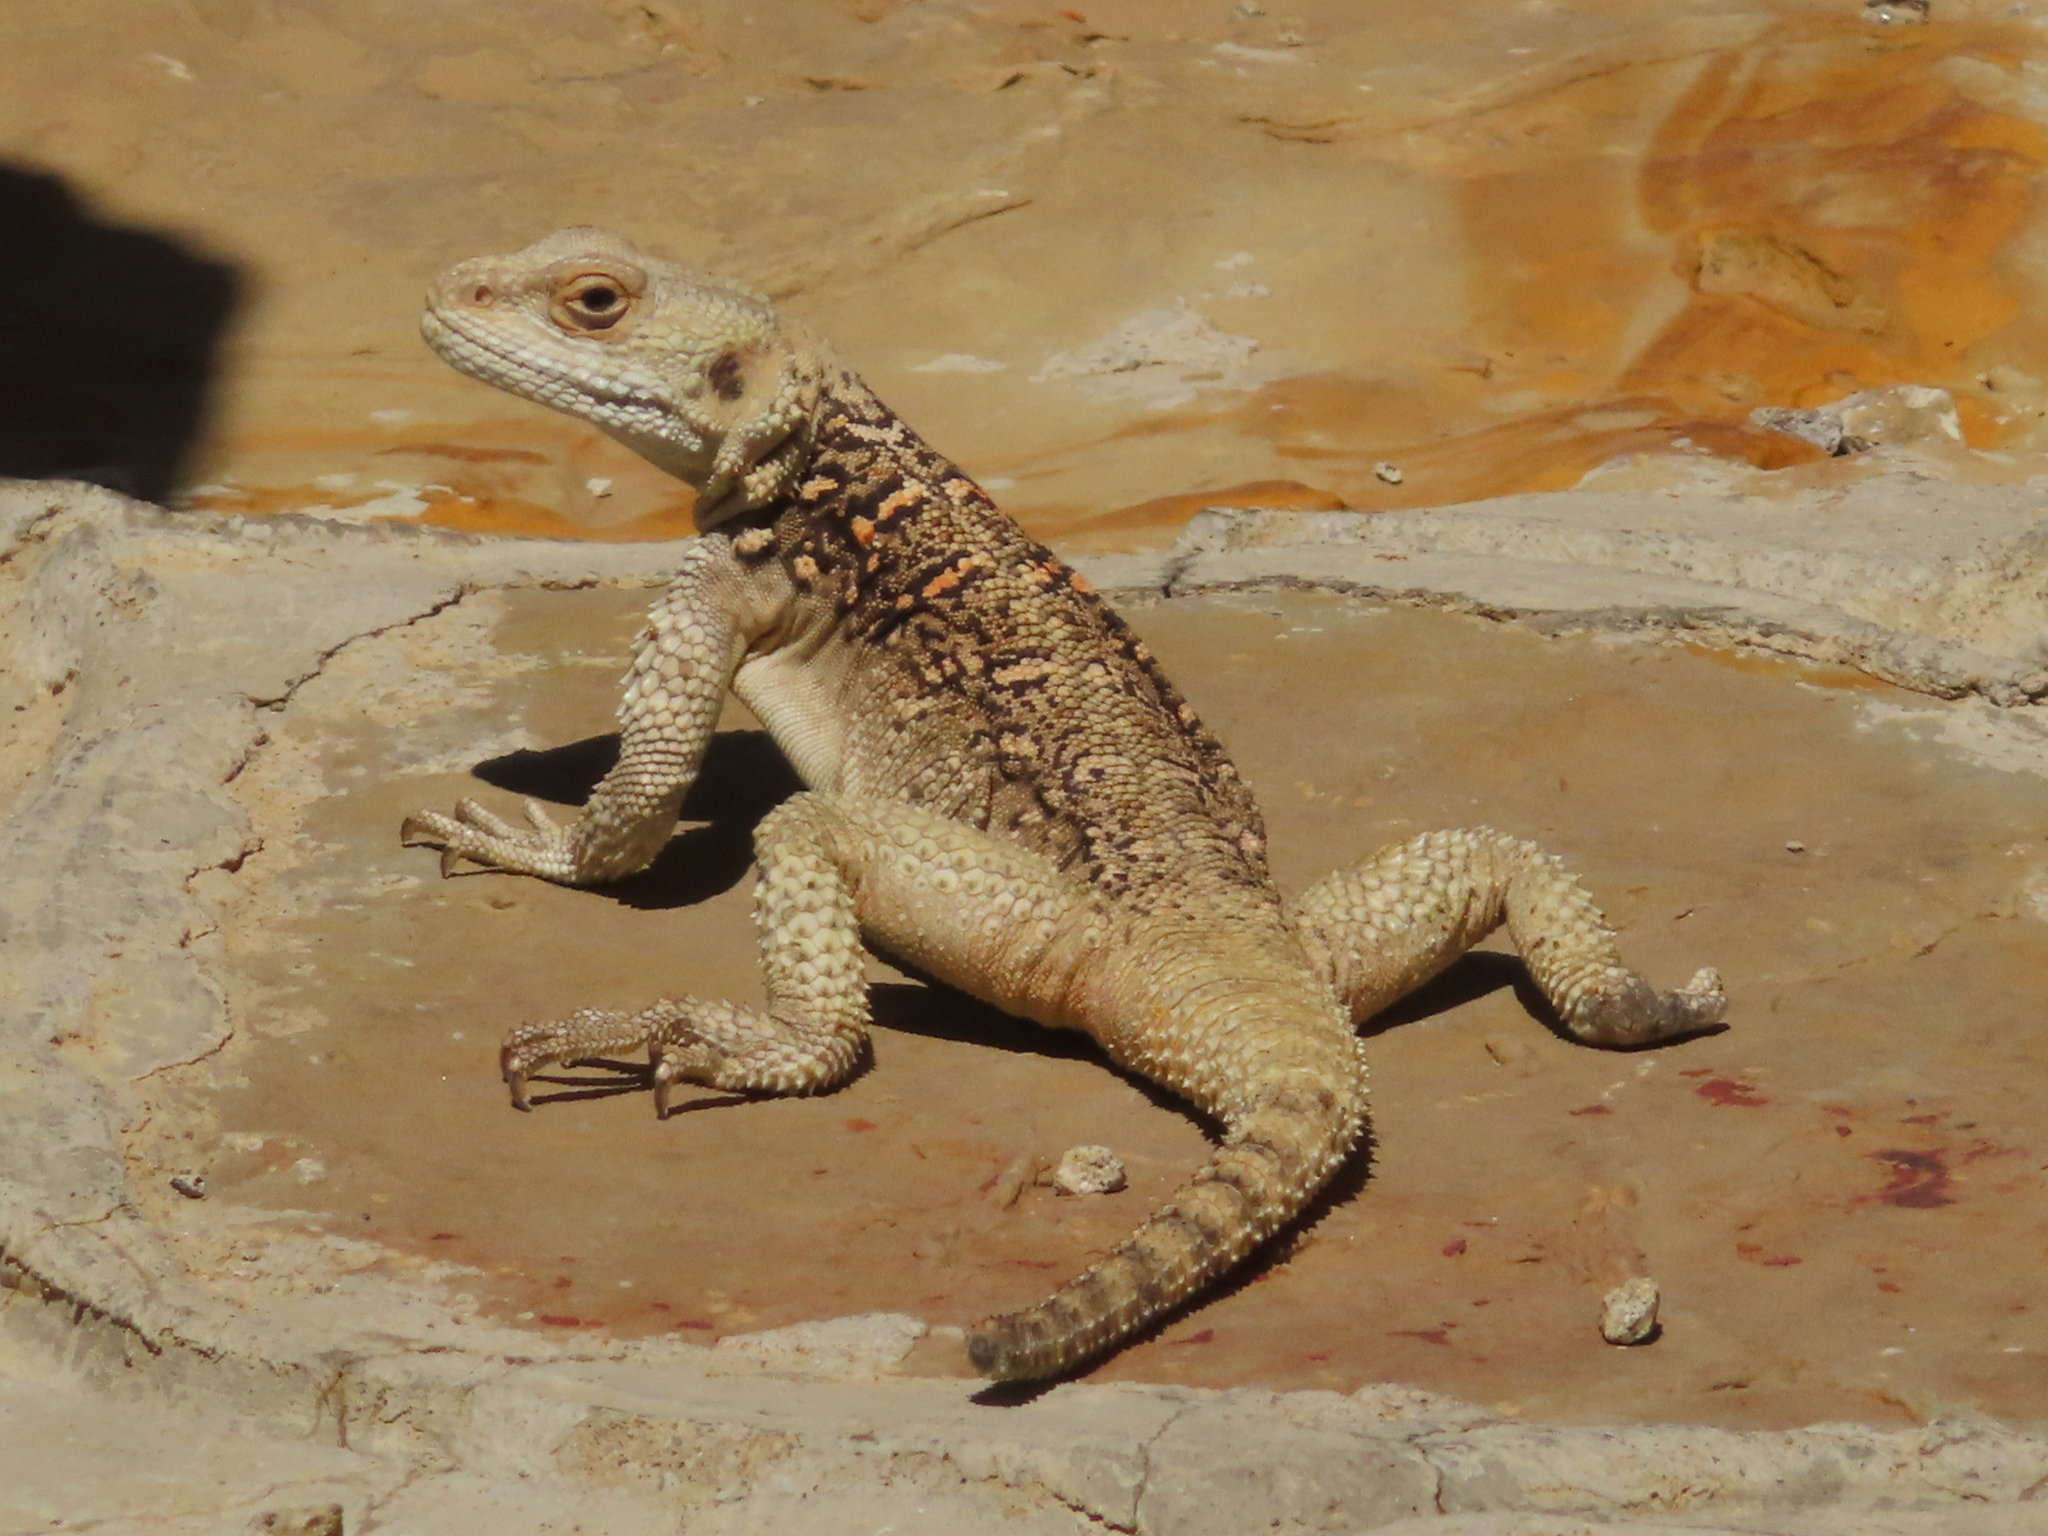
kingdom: Animalia
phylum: Chordata
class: Squamata
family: Agamidae
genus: Paralaudakia
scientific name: Paralaudakia caucasia
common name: Caucasian agama
